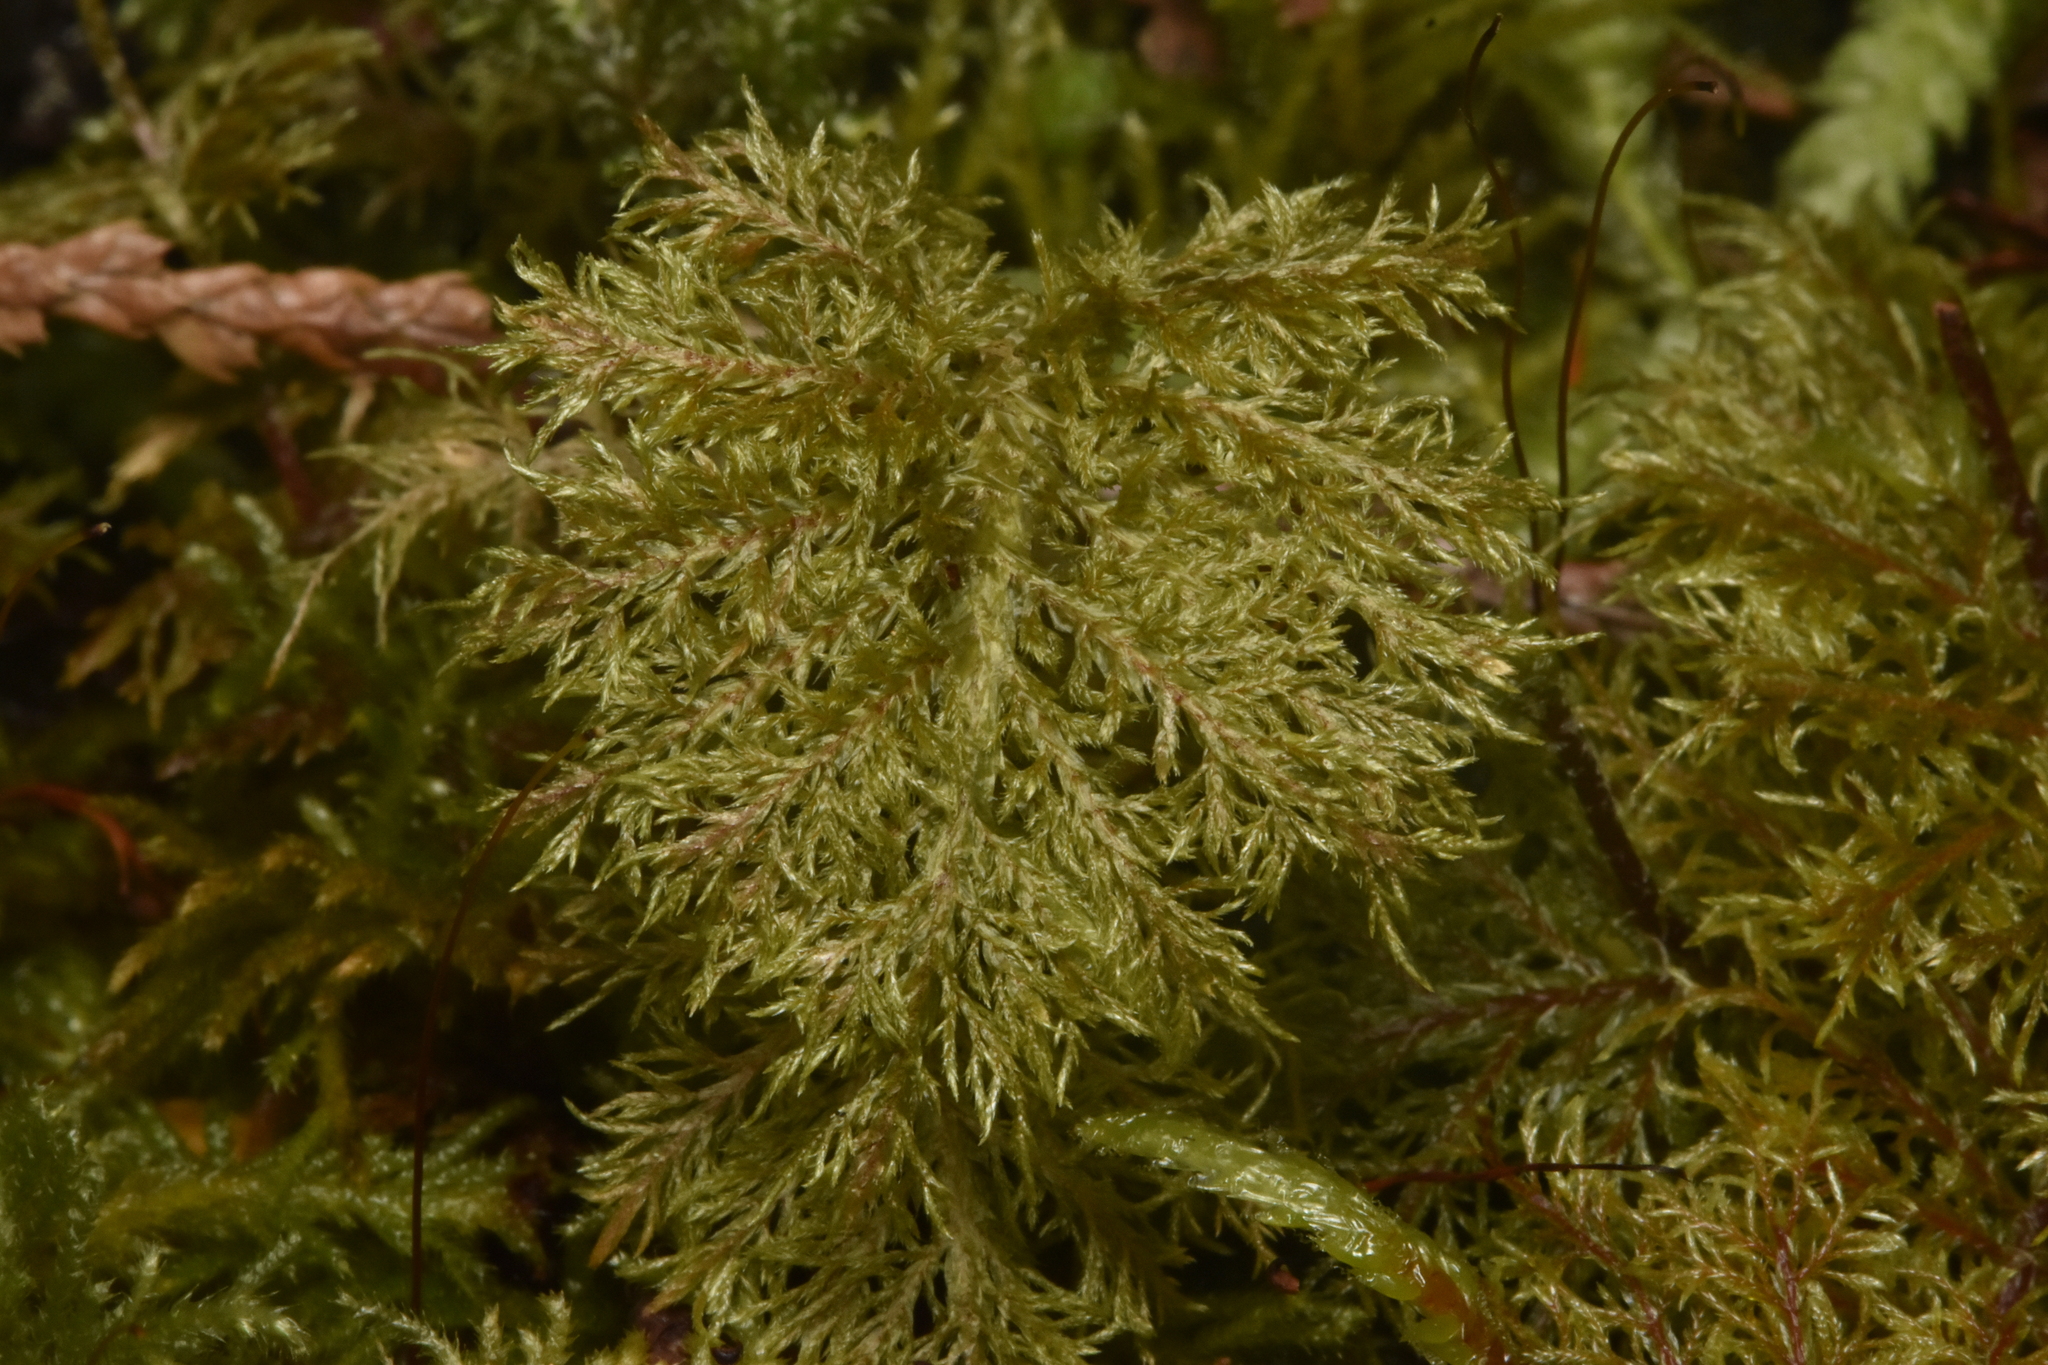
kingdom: Plantae
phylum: Bryophyta
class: Bryopsida
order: Hypnales
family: Hylocomiaceae
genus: Hylocomium
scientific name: Hylocomium splendens
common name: Stairstep moss
